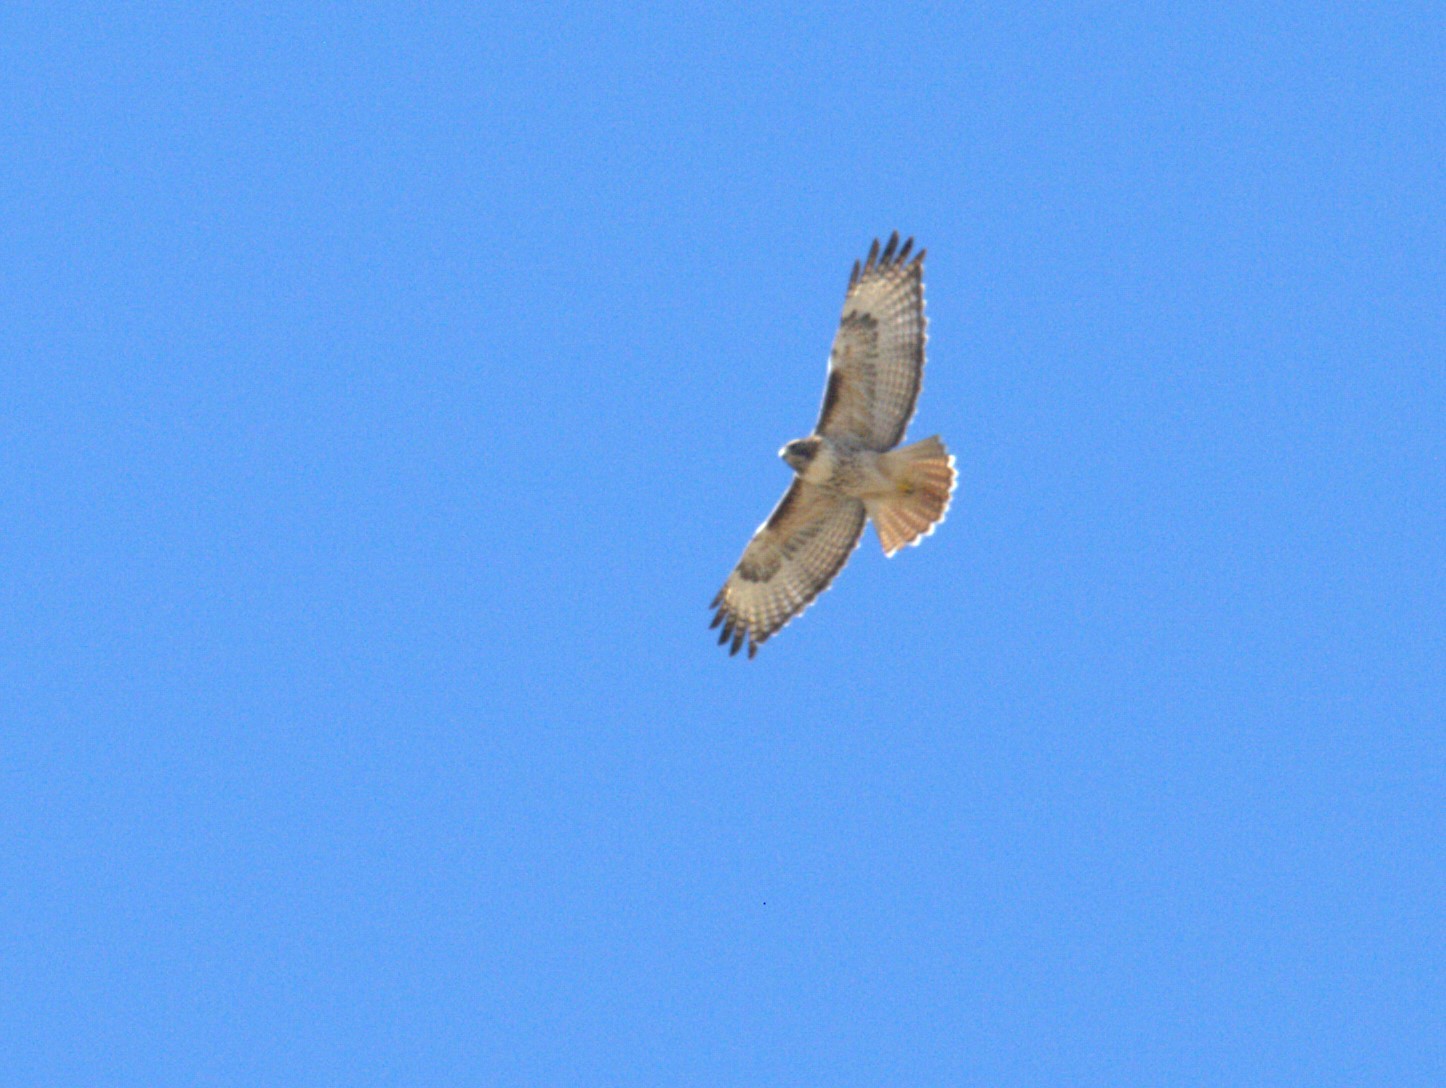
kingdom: Animalia
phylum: Chordata
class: Aves
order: Accipitriformes
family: Accipitridae
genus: Buteo
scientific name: Buteo jamaicensis
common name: Red-tailed hawk
